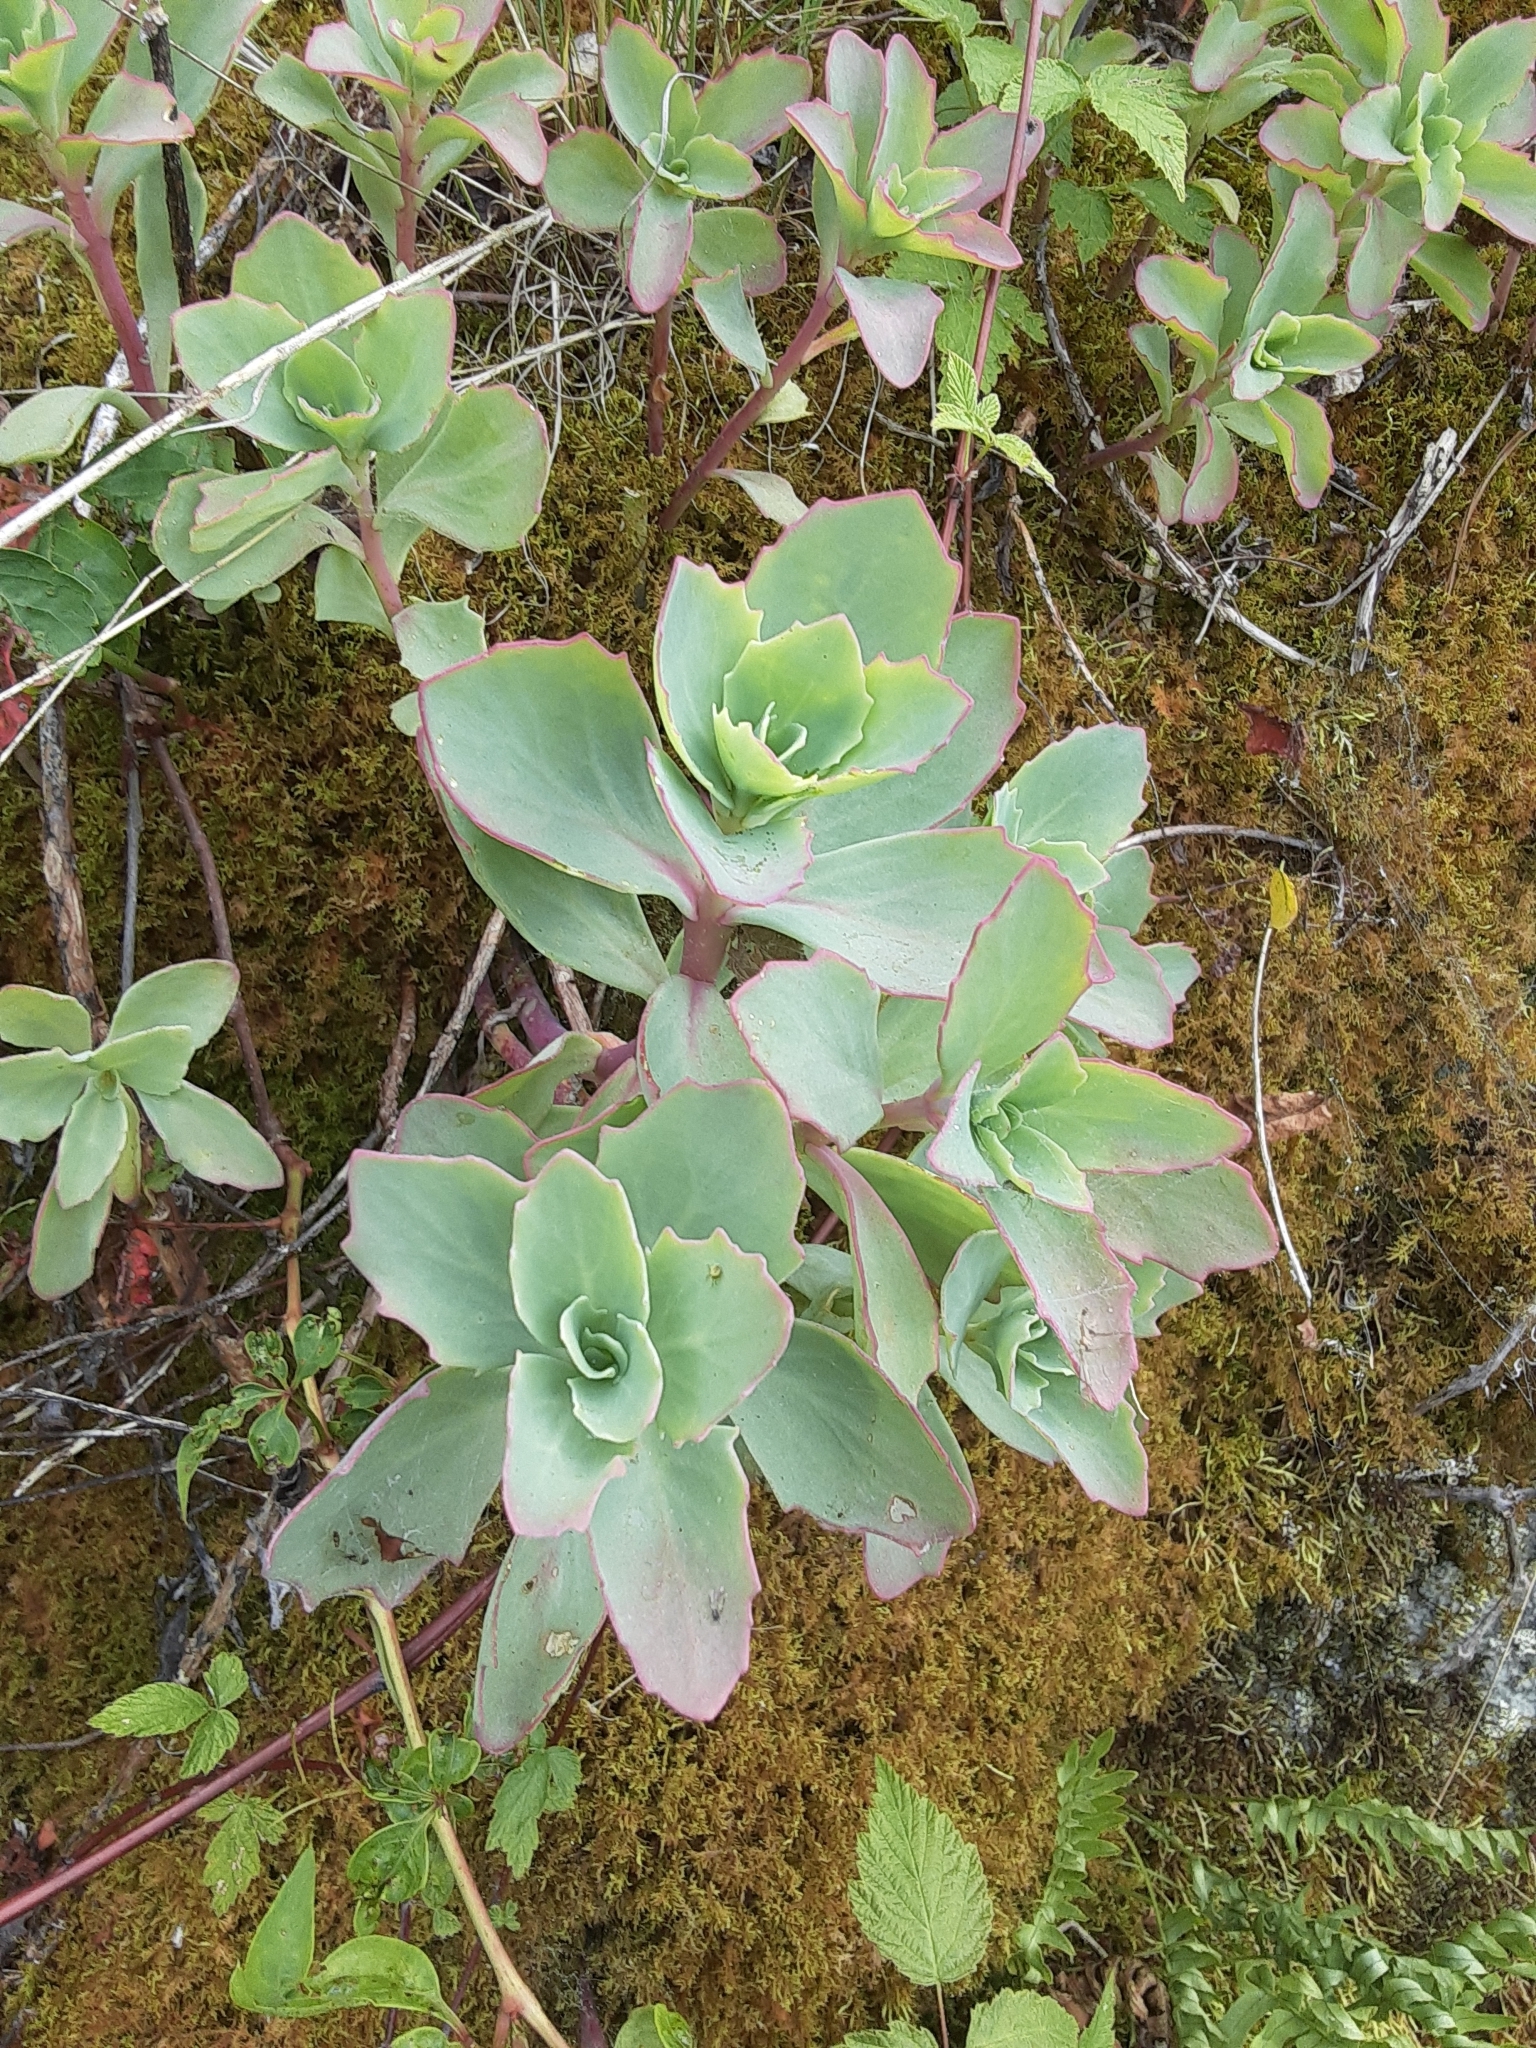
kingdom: Plantae
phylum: Tracheophyta
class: Magnoliopsida
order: Saxifragales
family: Crassulaceae
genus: Hylotelephium
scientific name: Hylotelephium telephioides
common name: Allegheny stonecrop
